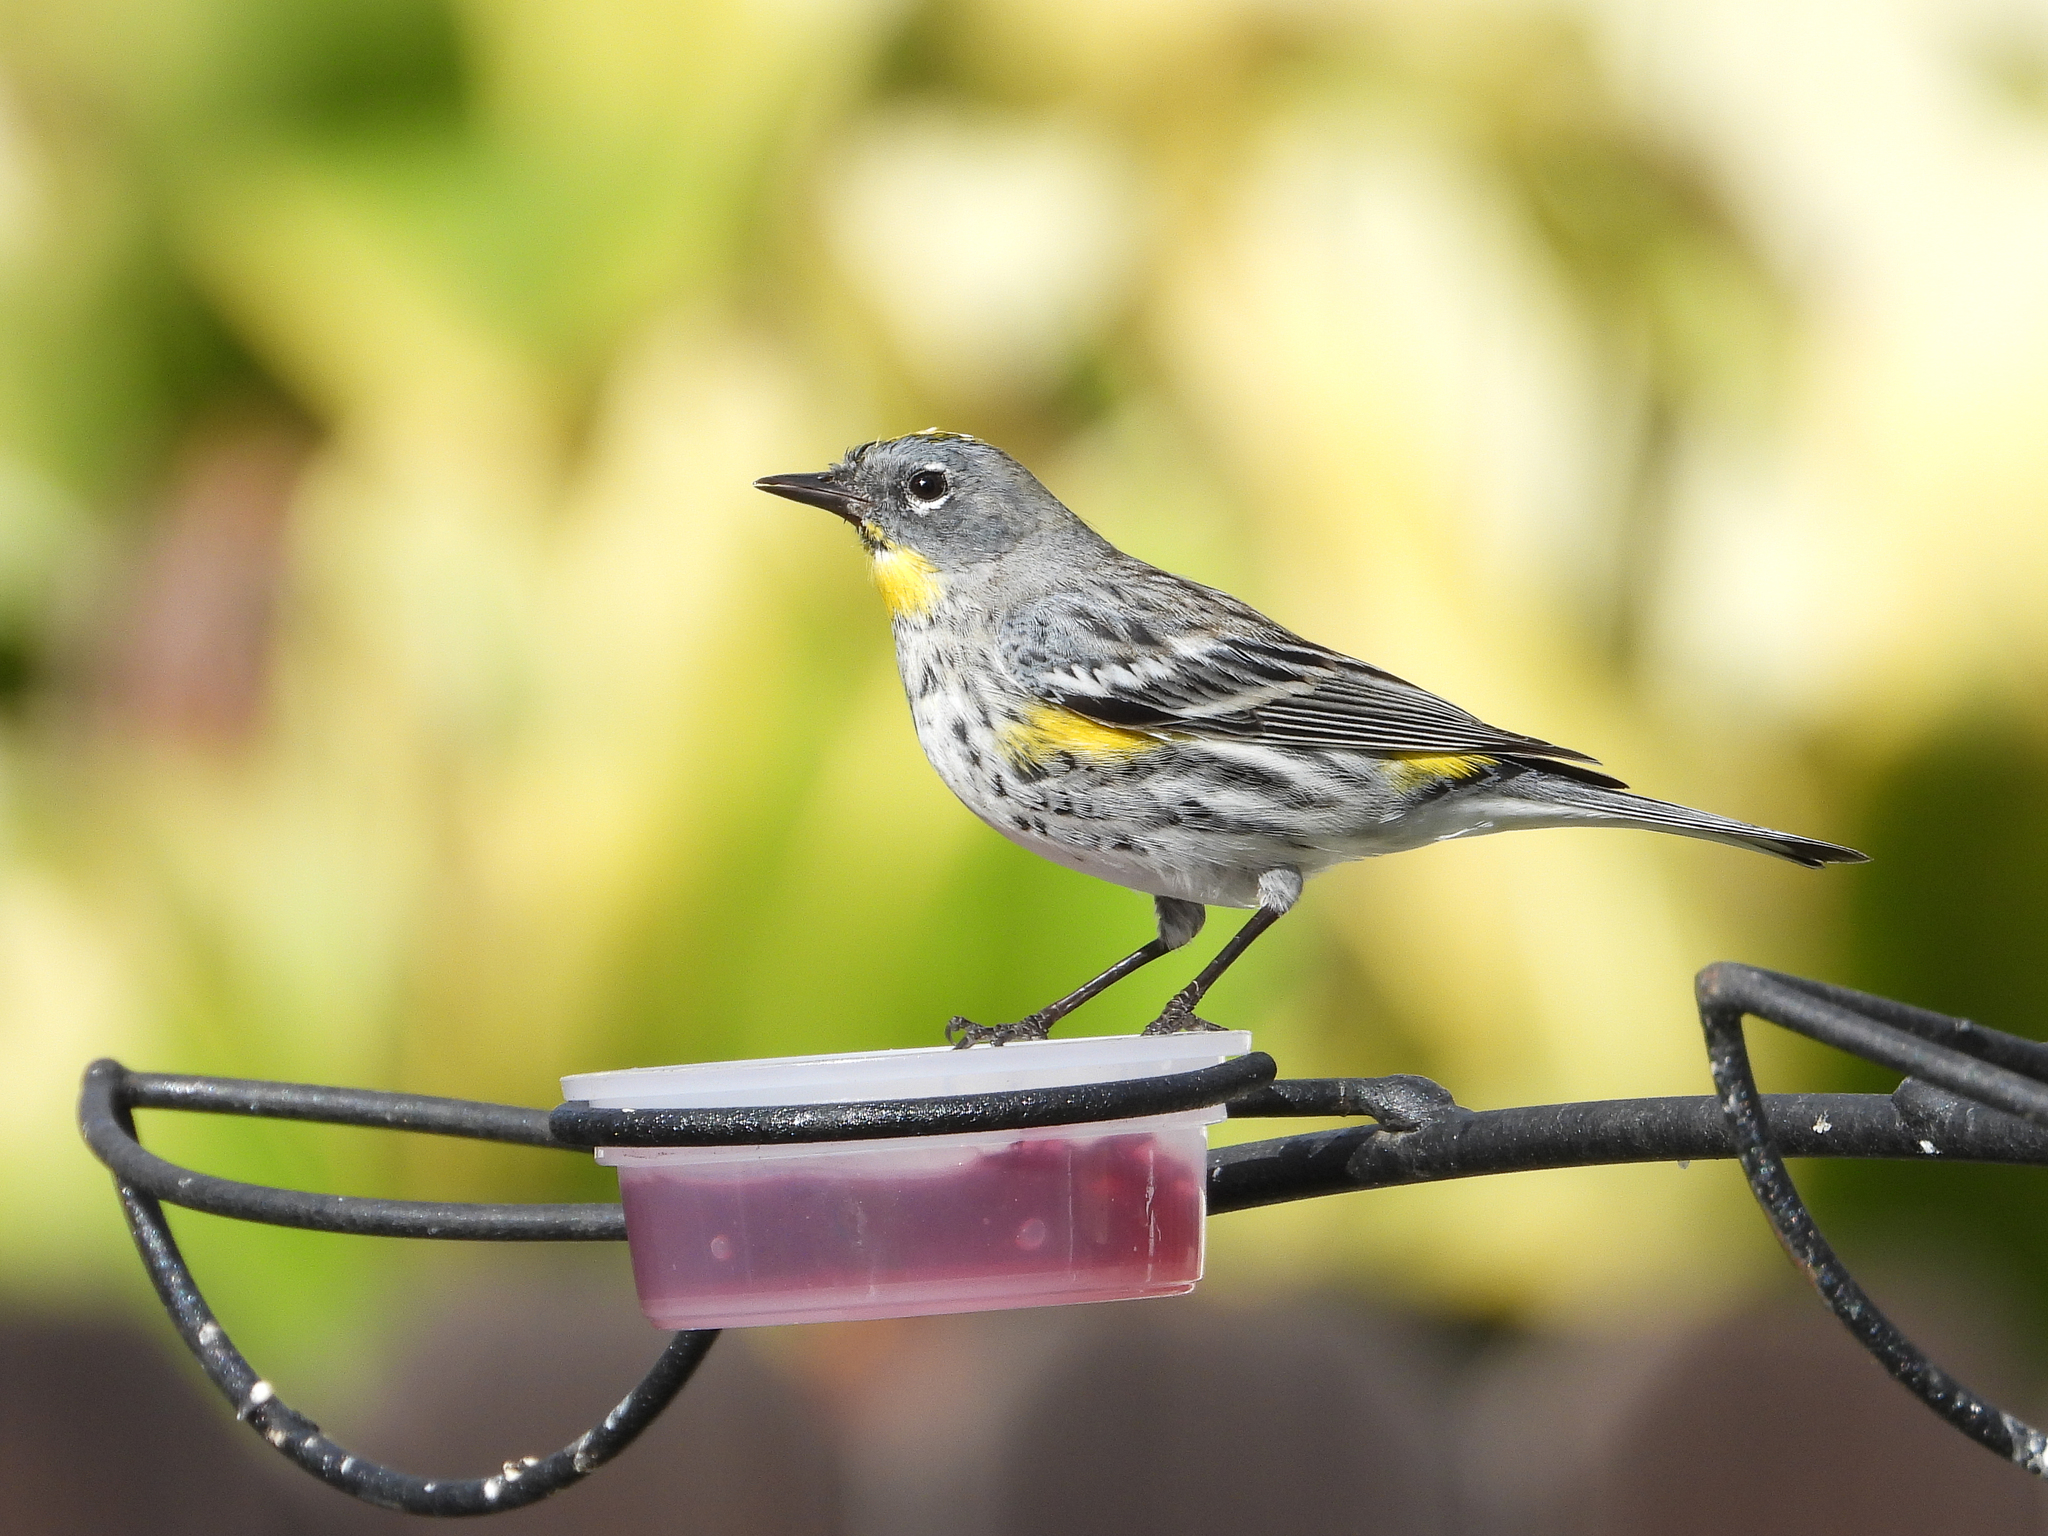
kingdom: Animalia
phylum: Chordata
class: Aves
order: Passeriformes
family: Parulidae
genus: Setophaga
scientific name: Setophaga coronata
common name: Myrtle warbler
